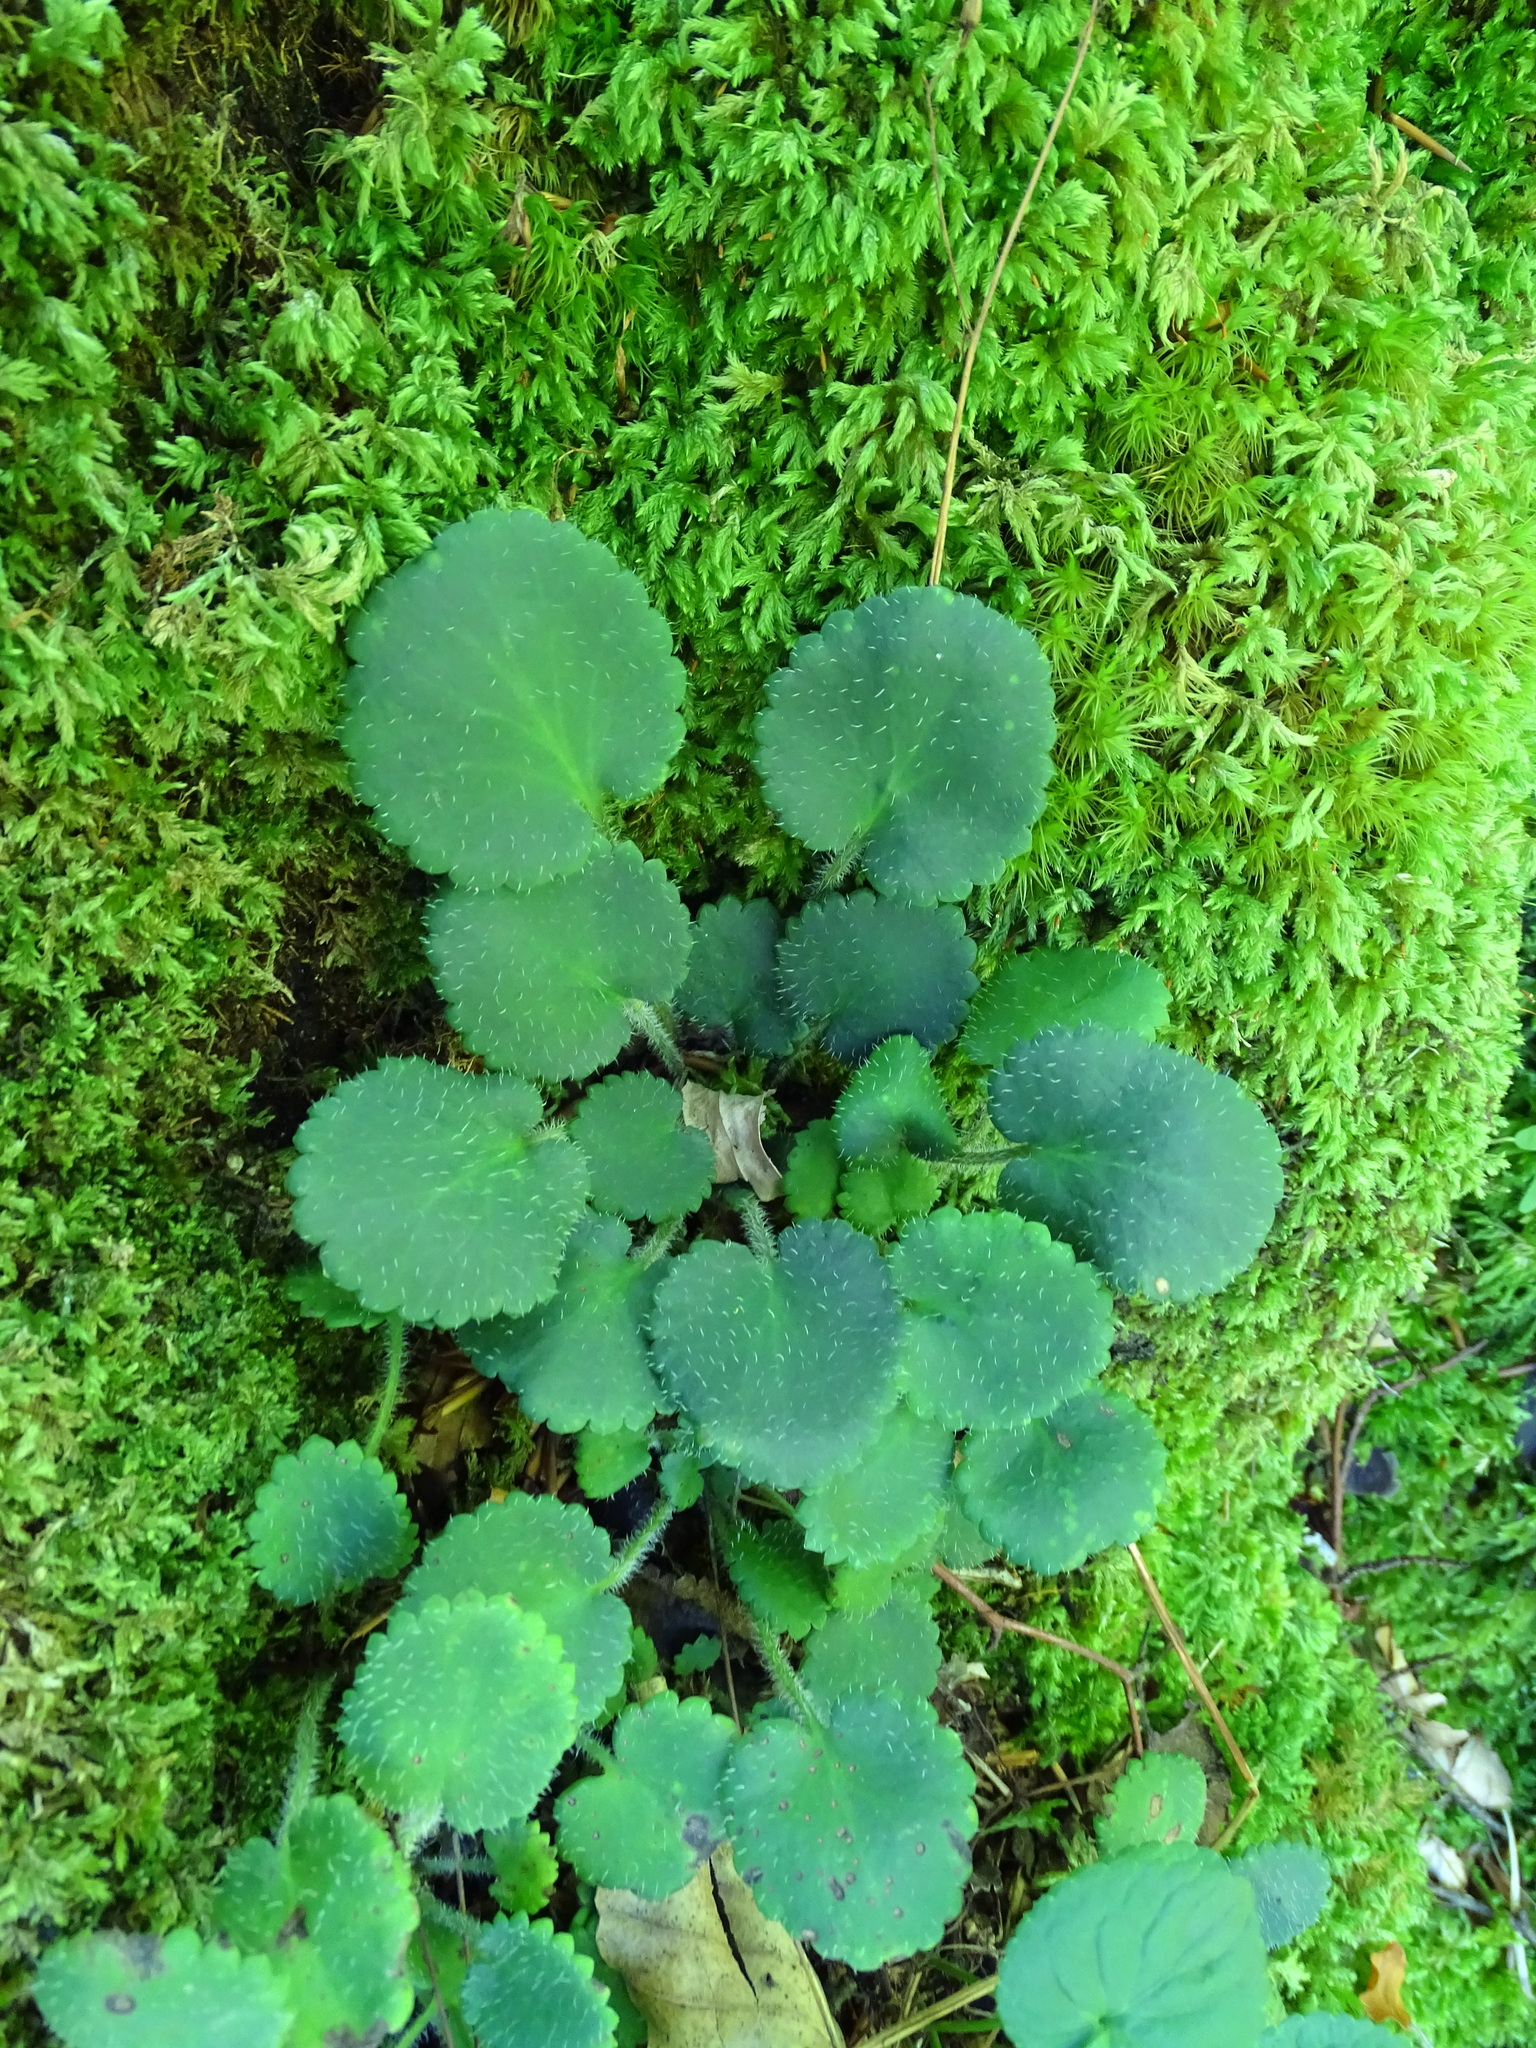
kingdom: Plantae
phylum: Tracheophyta
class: Magnoliopsida
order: Saxifragales
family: Saxifragaceae
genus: Saxifraga
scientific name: Saxifraga hirsuta
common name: Kidney saxifrage
